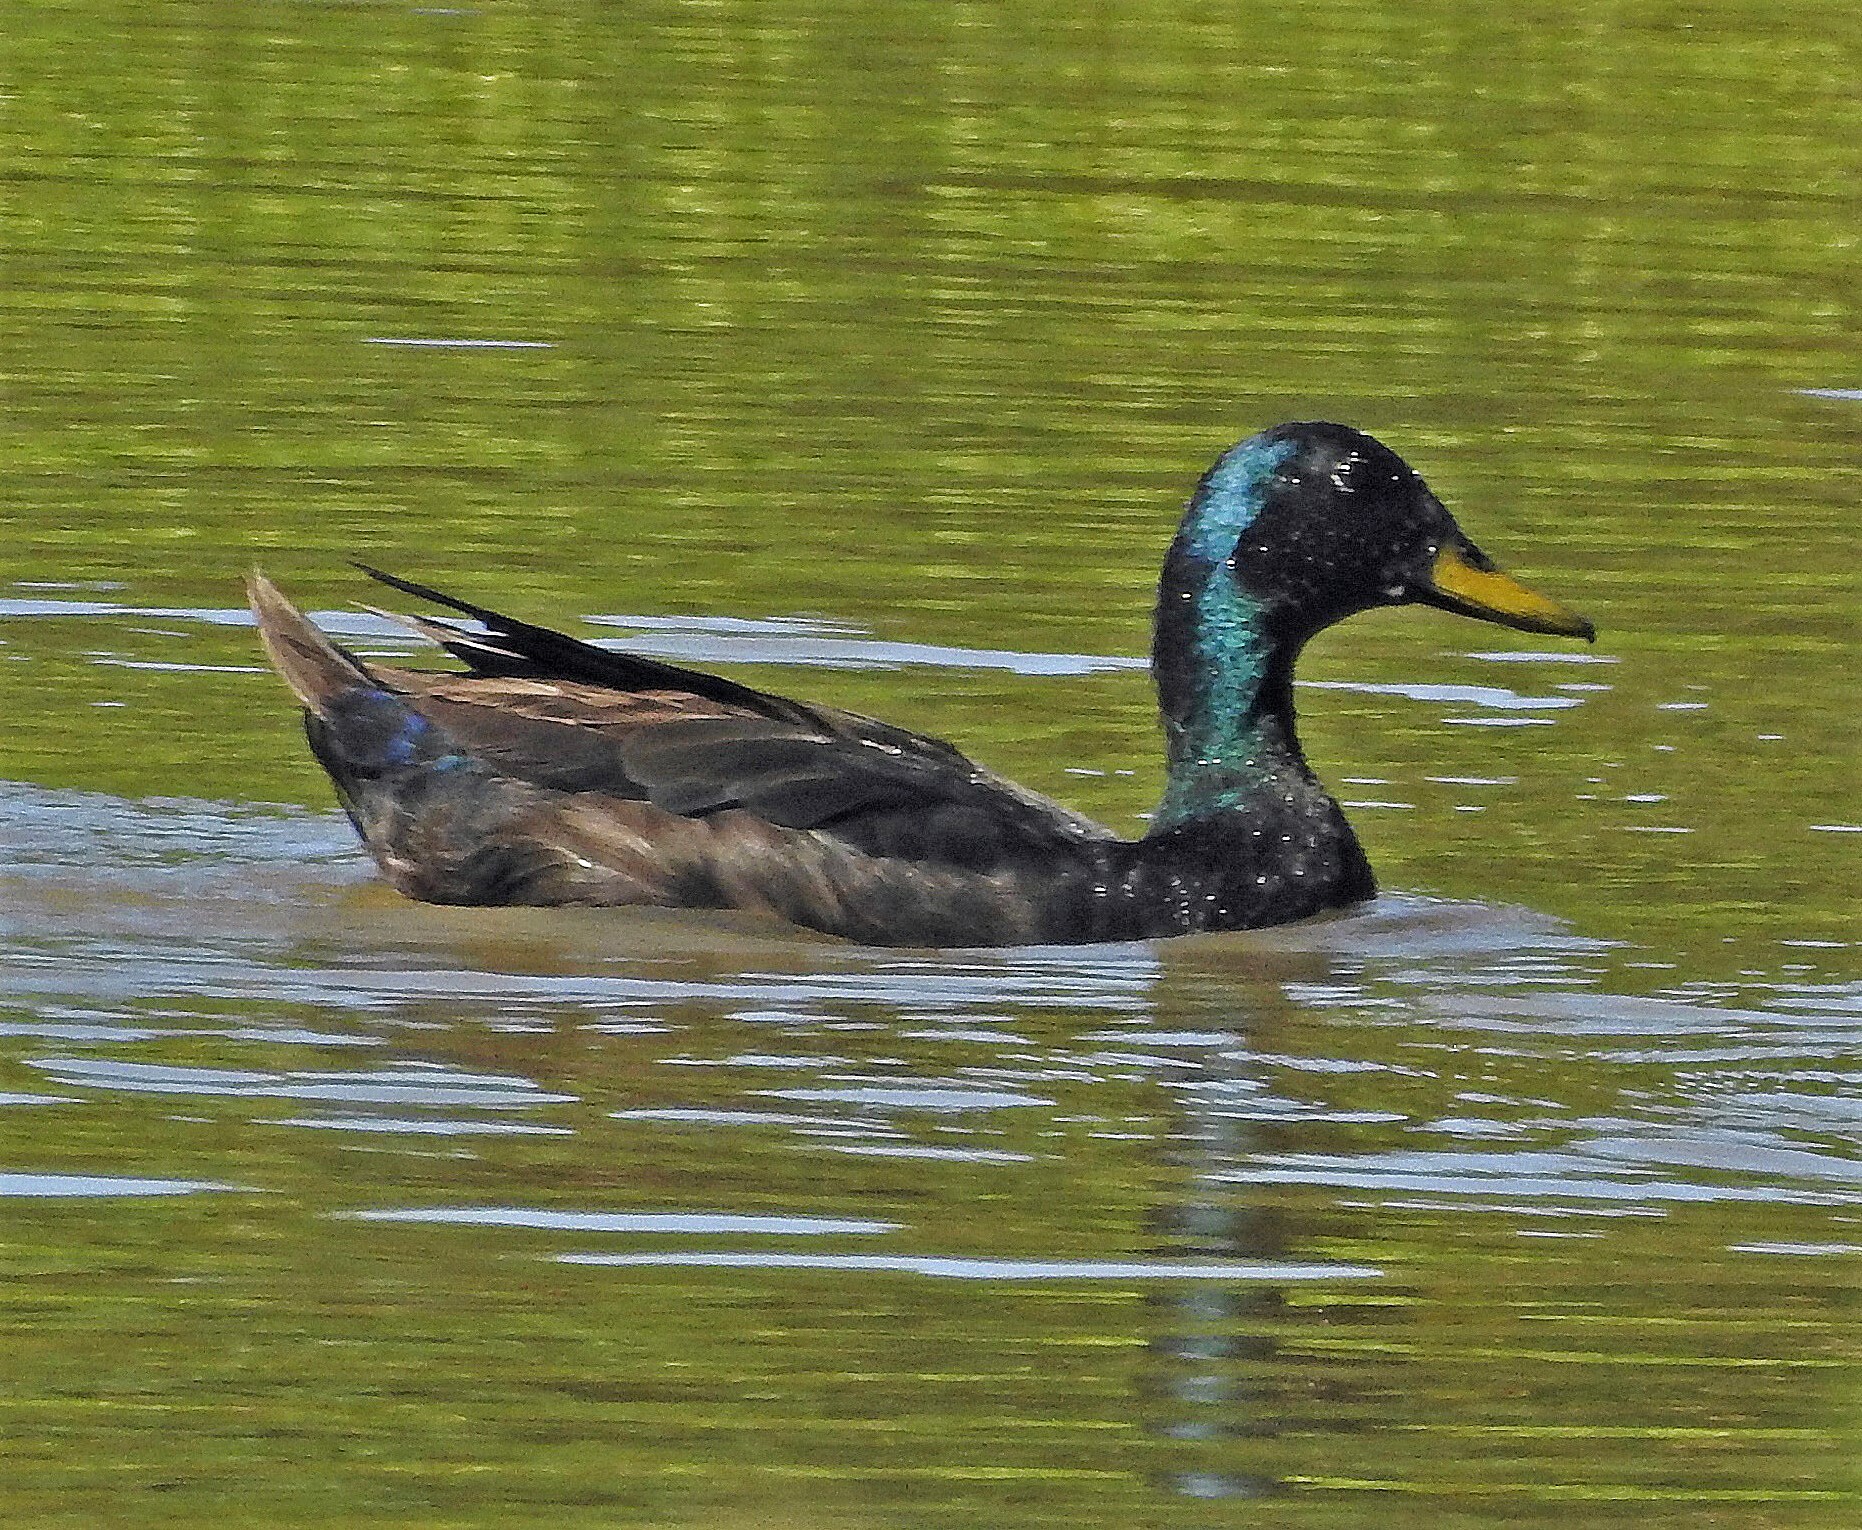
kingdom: Animalia
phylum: Chordata
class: Aves
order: Anseriformes
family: Anatidae
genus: Anas
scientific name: Anas platyrhynchos
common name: Mallard
